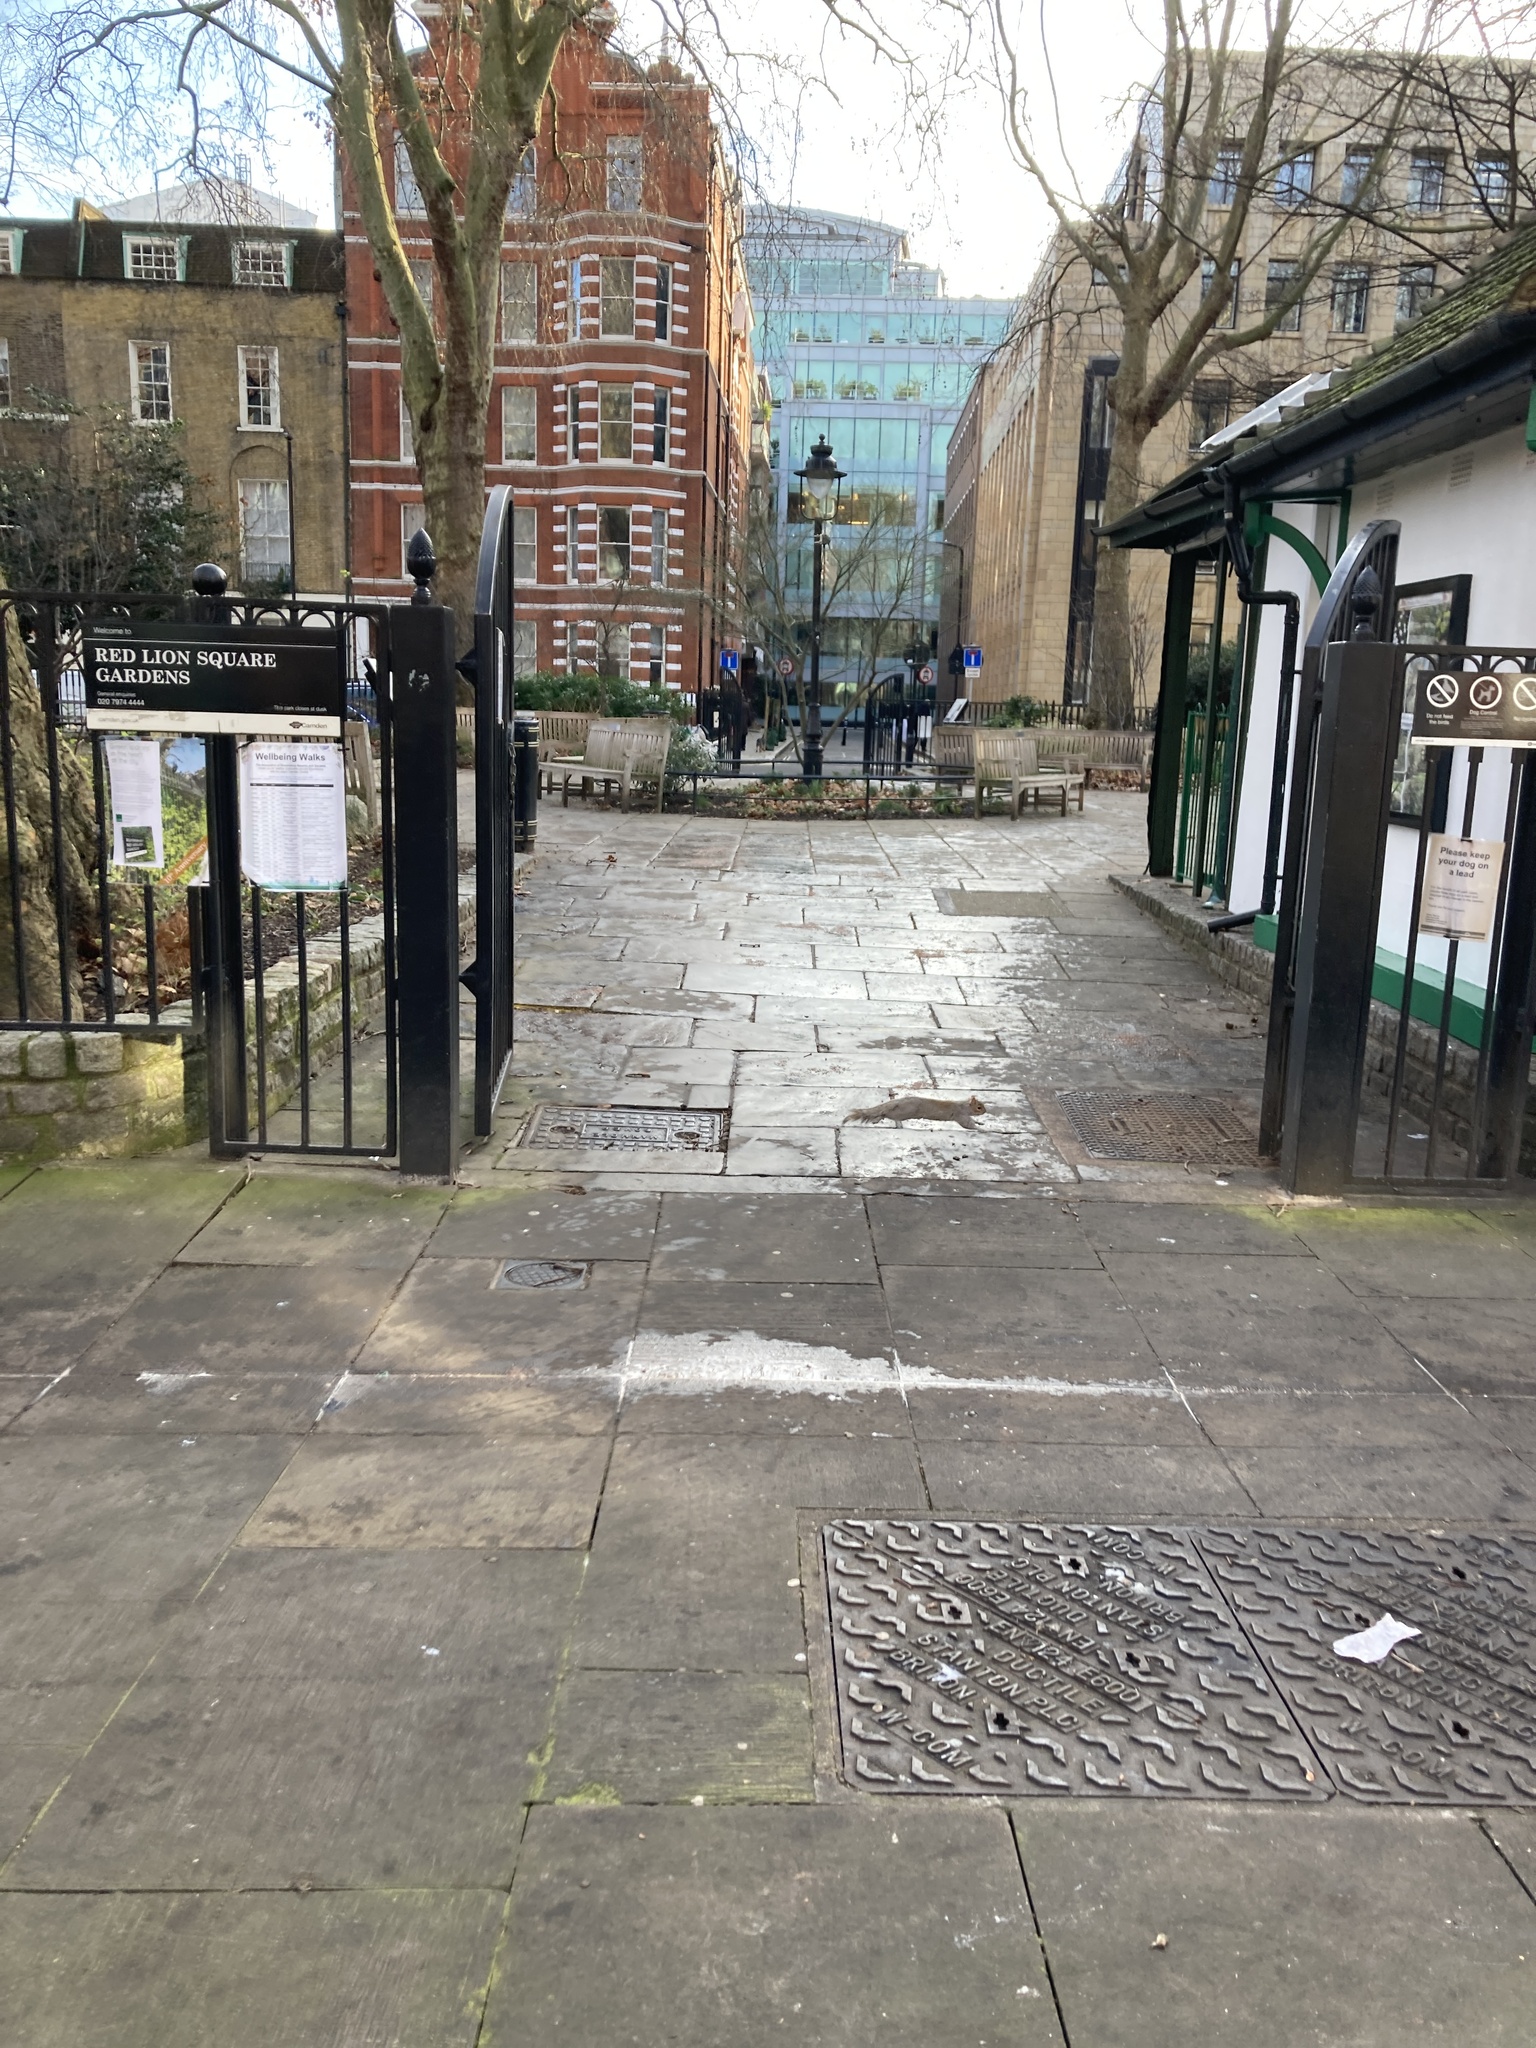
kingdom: Animalia
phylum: Chordata
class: Mammalia
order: Rodentia
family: Sciuridae
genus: Sciurus
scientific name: Sciurus carolinensis
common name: Eastern gray squirrel
